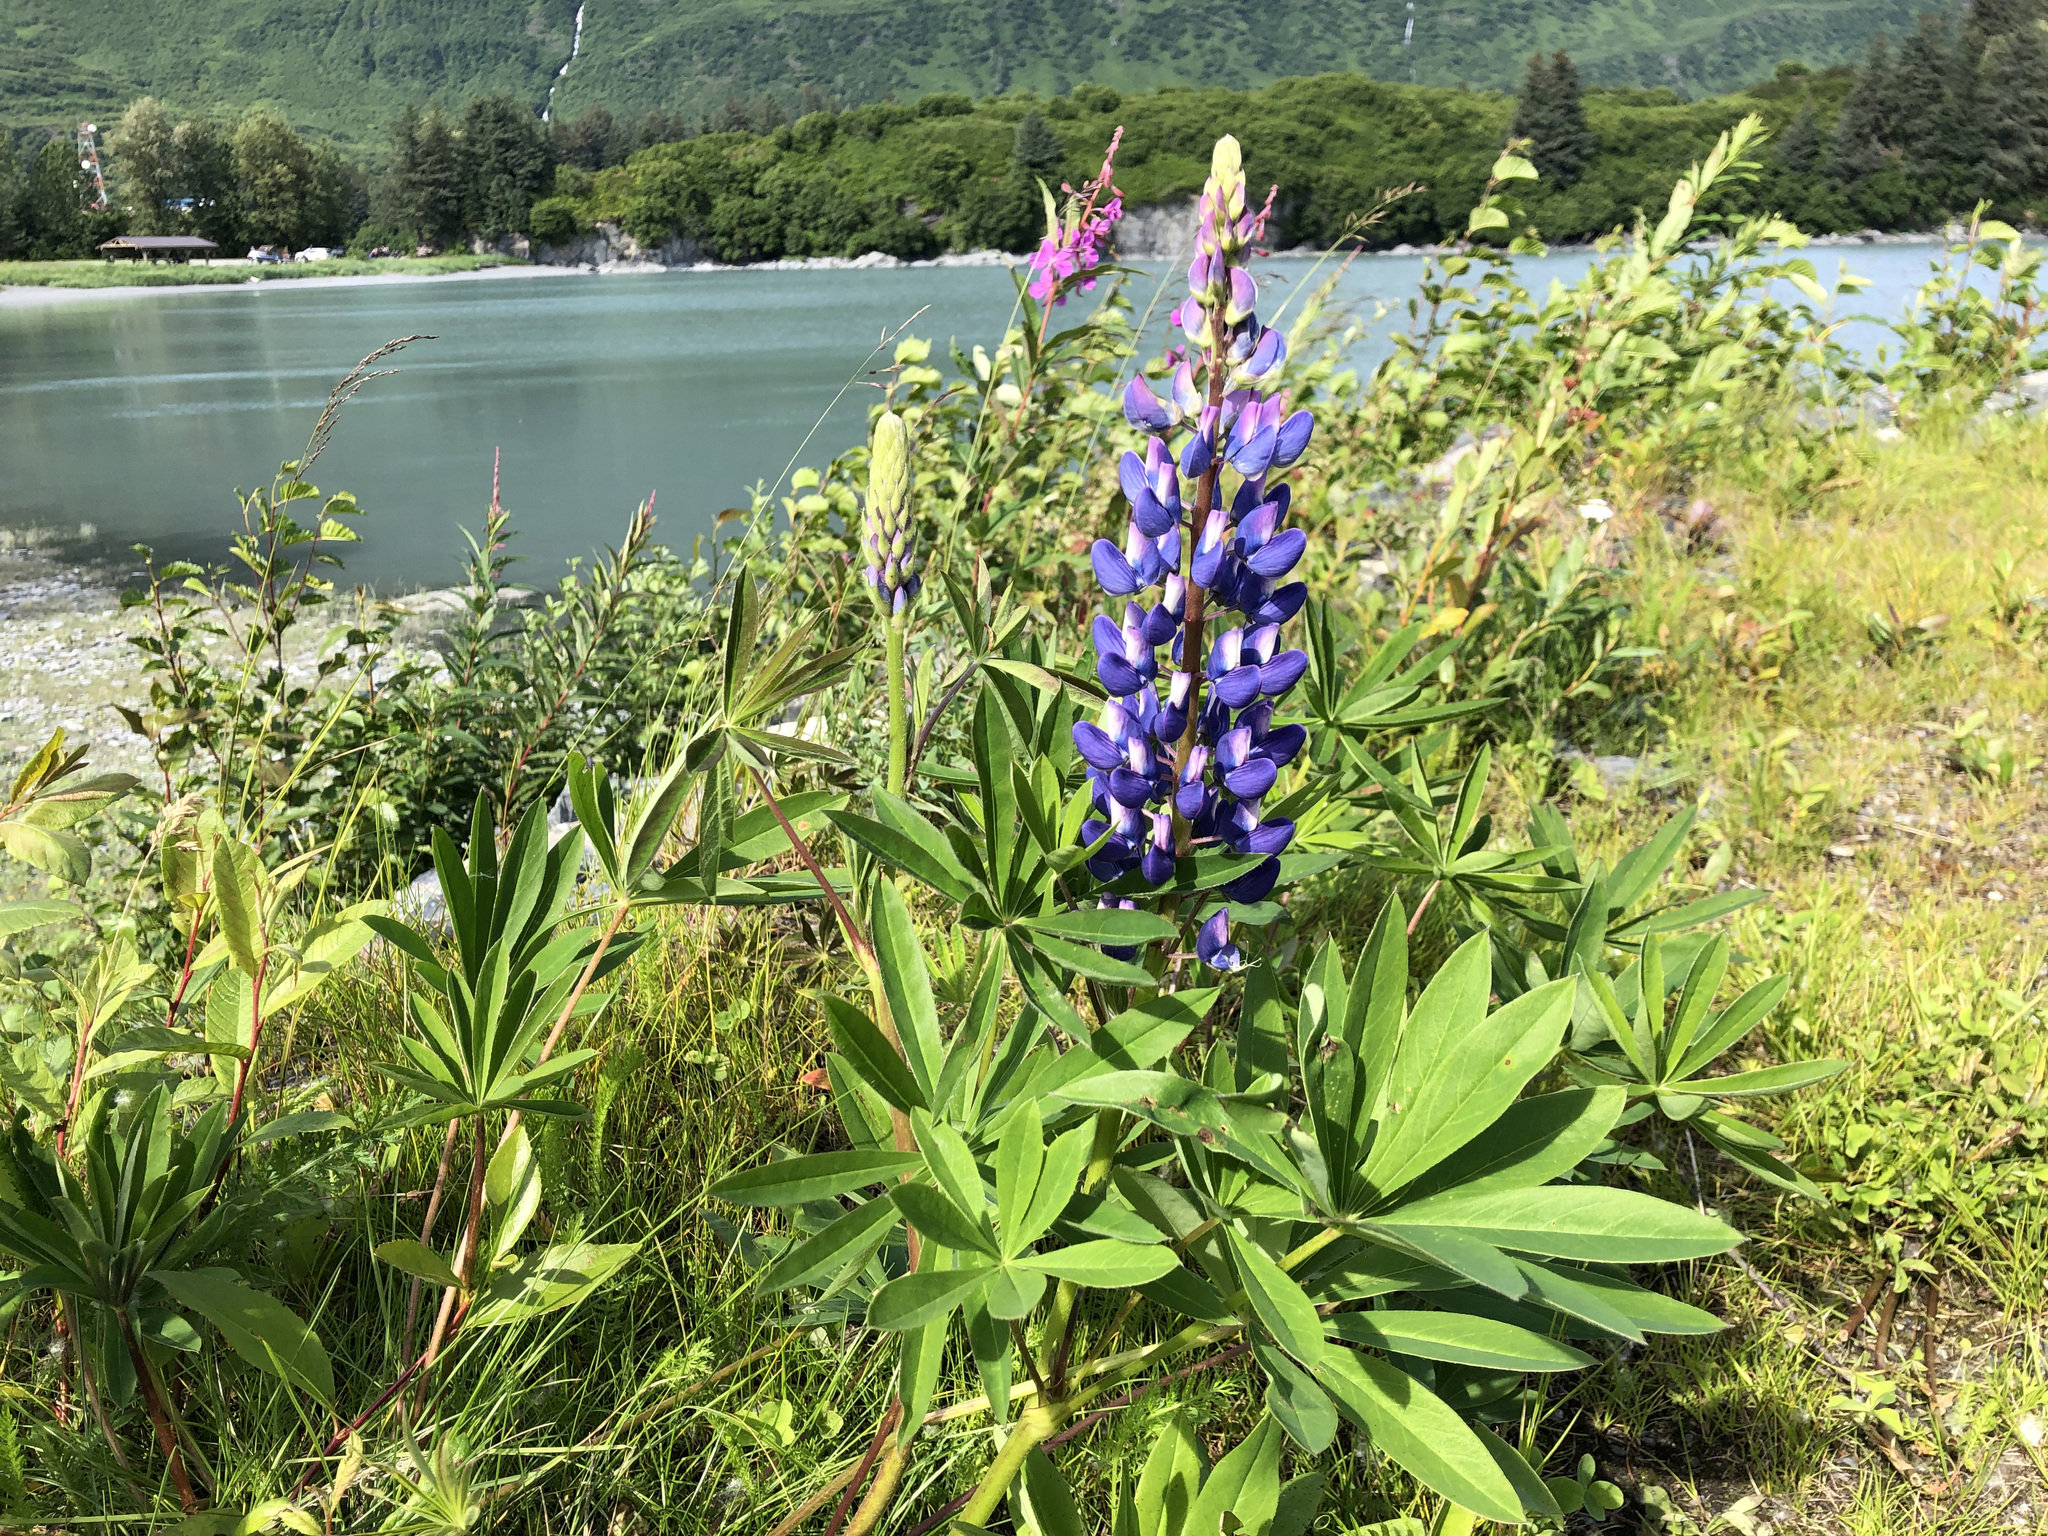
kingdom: Plantae
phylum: Tracheophyta
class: Magnoliopsida
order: Fabales
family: Fabaceae
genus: Lupinus
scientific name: Lupinus nootkatensis
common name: Nootka lupine
